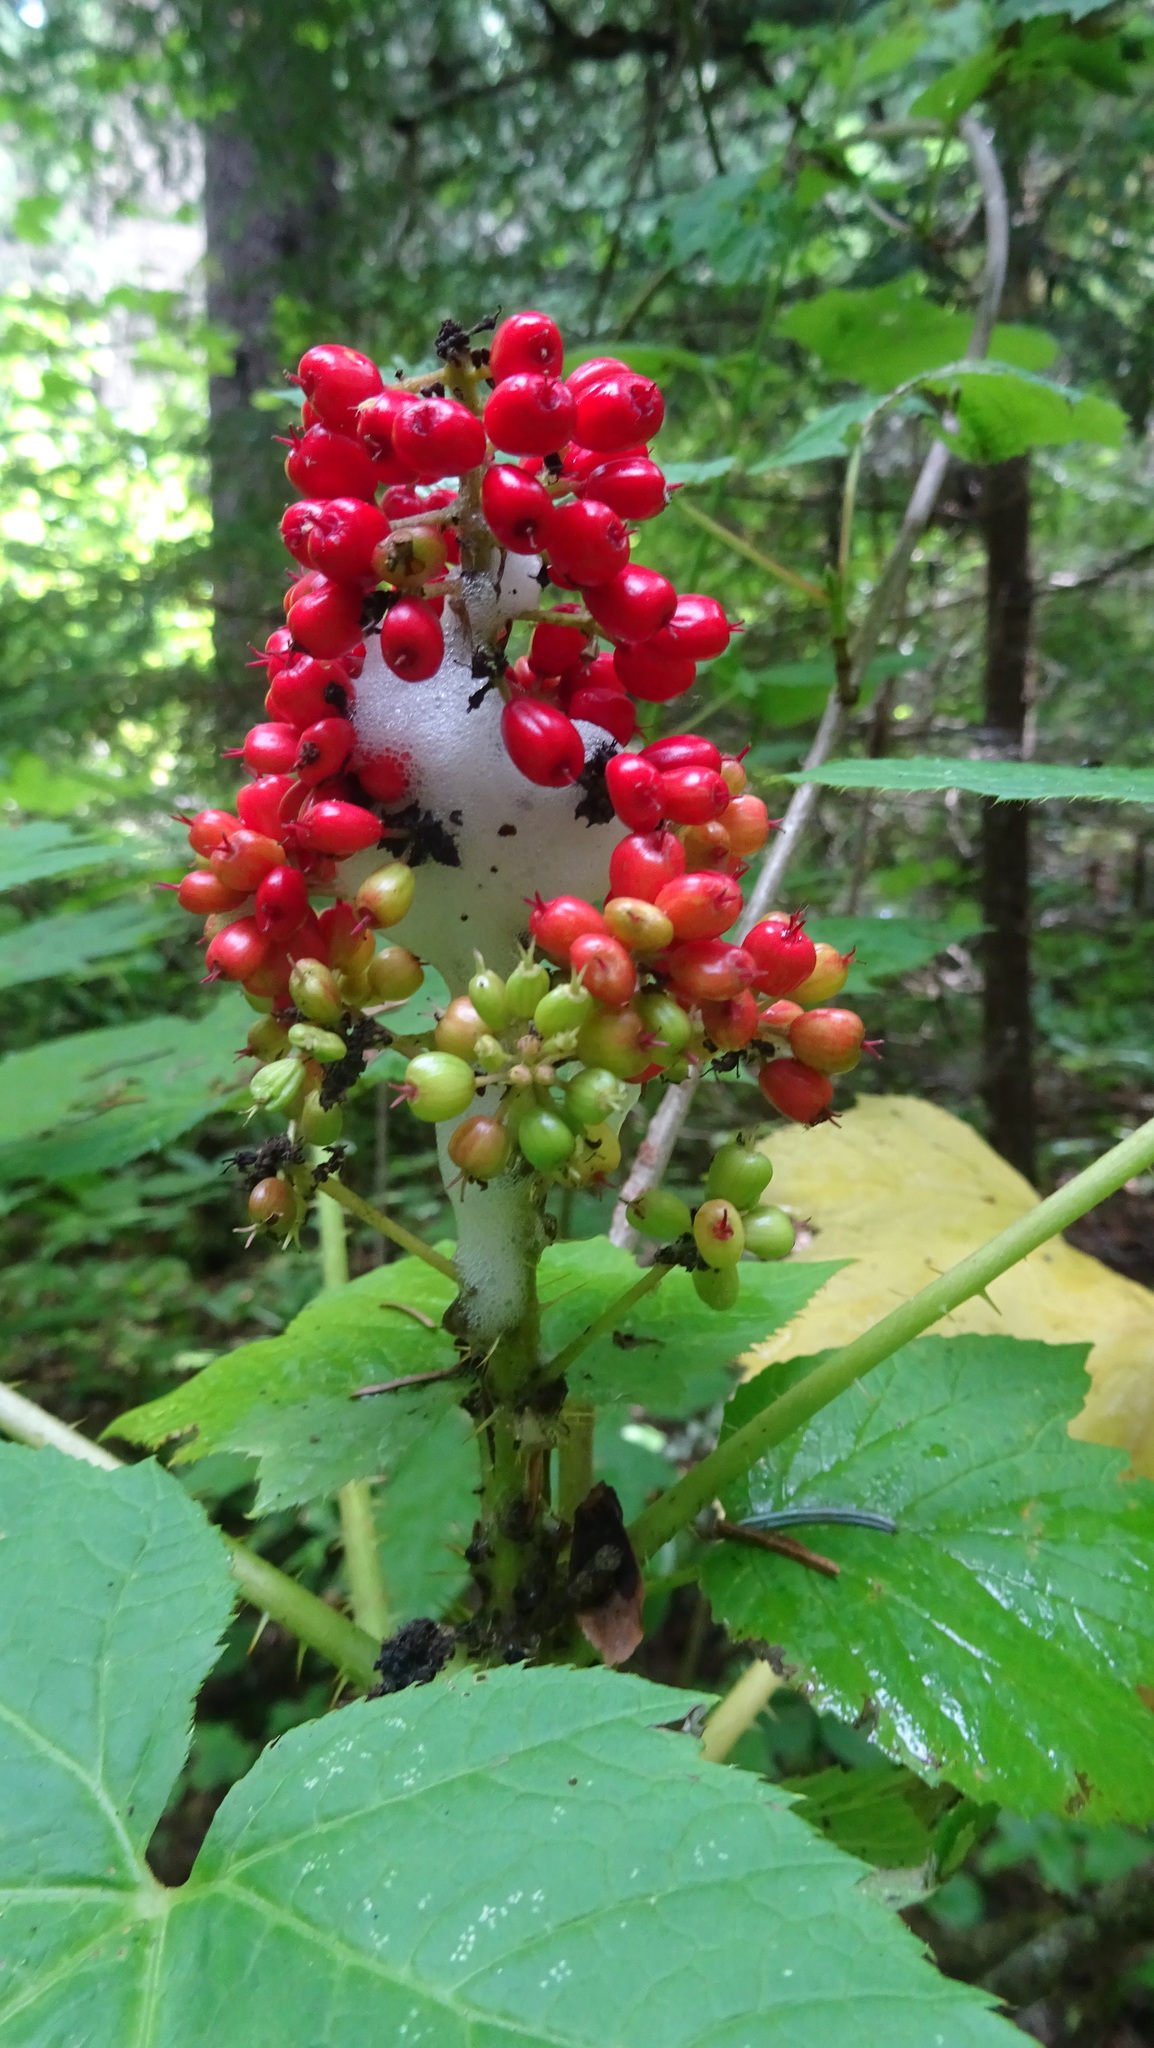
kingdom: Plantae
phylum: Tracheophyta
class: Magnoliopsida
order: Apiales
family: Araliaceae
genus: Oplopanax
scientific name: Oplopanax horridus
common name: Devil's walking-stick
